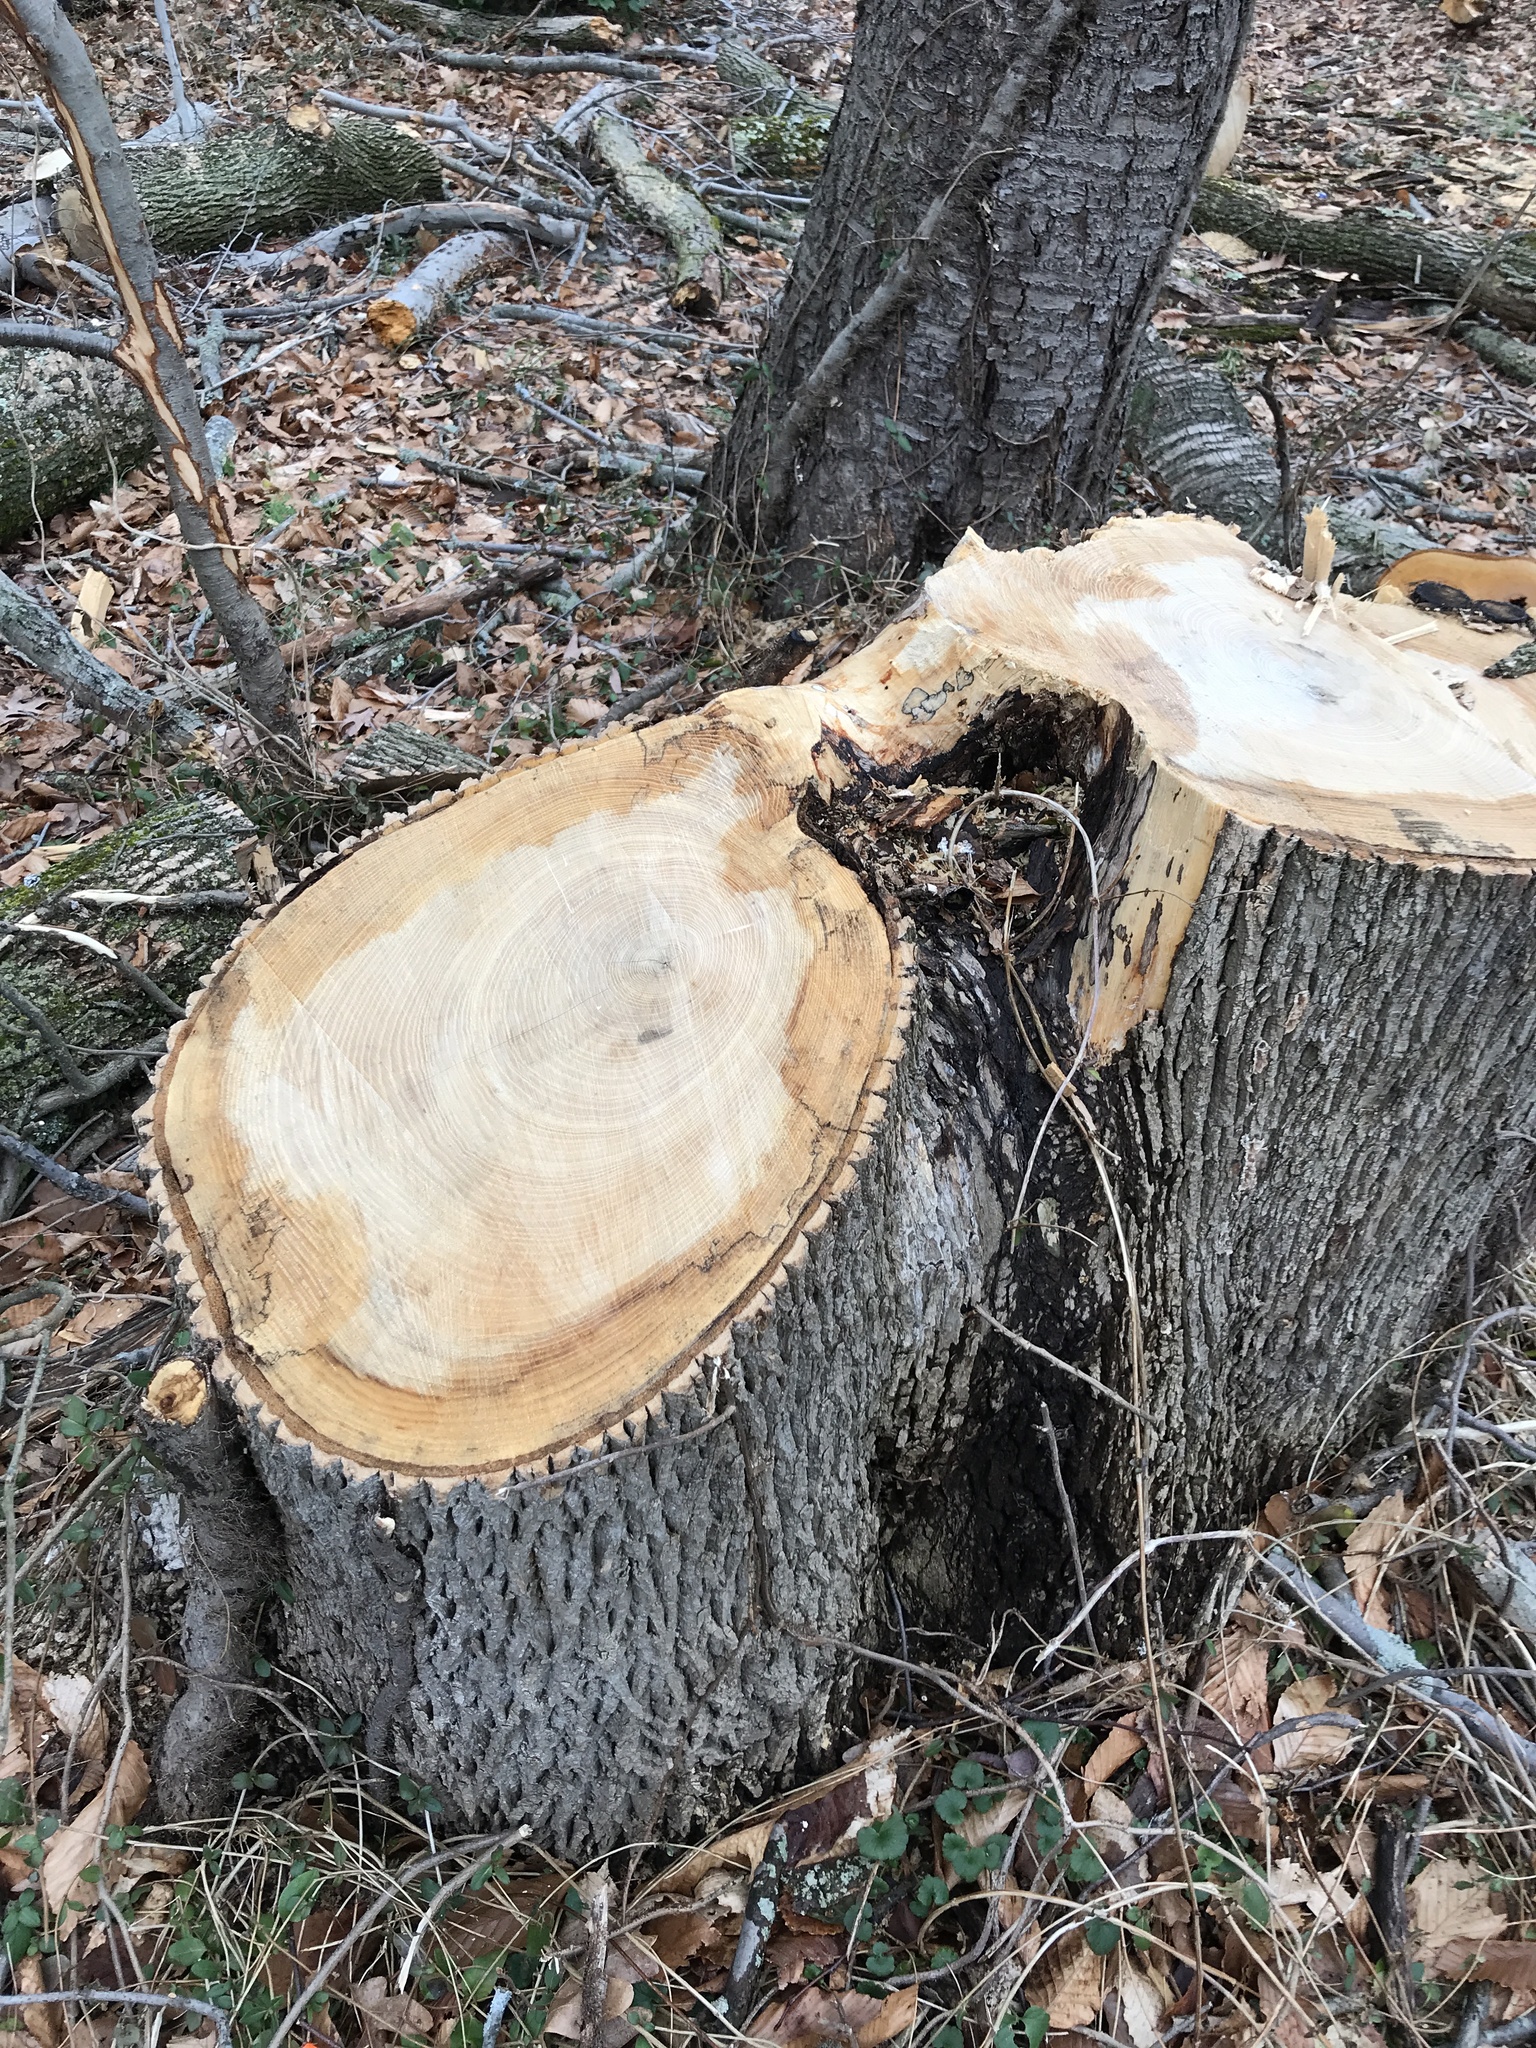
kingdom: Animalia
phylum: Arthropoda
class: Insecta
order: Coleoptera
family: Buprestidae
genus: Agrilus
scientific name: Agrilus planipennis
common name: Emerald ash borer
